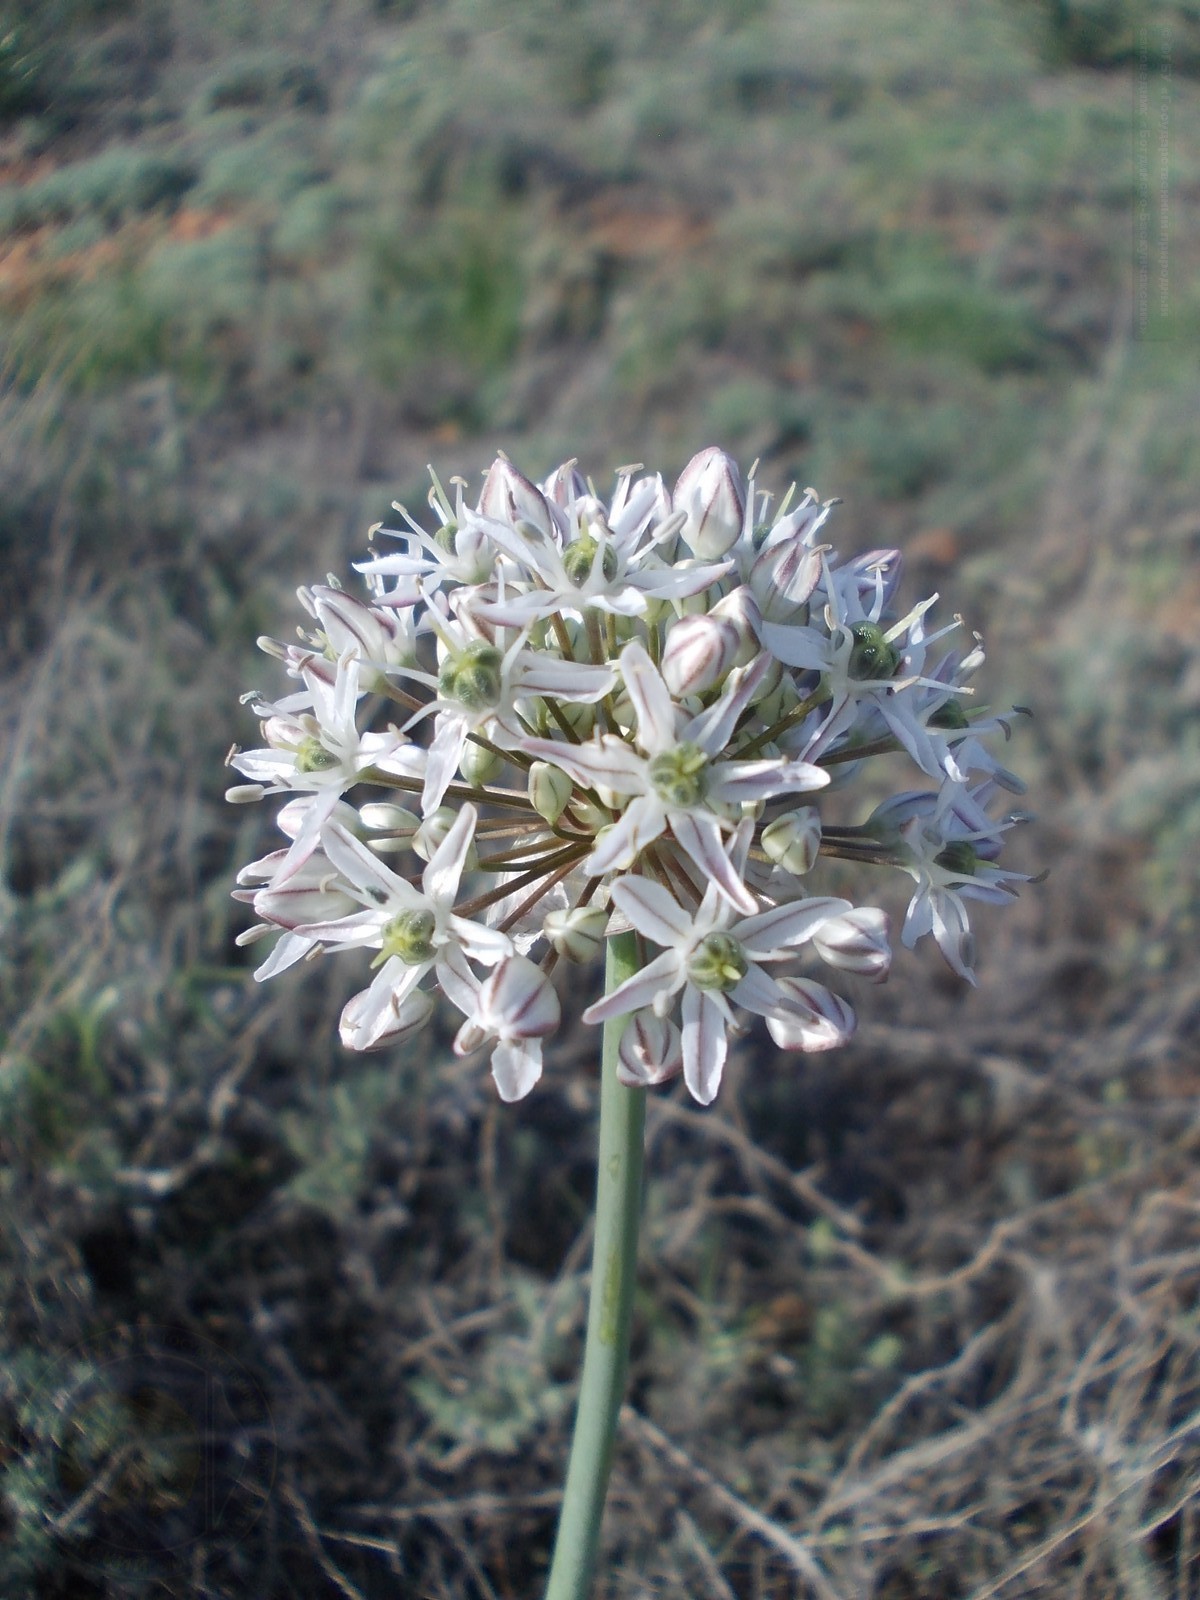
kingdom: Plantae
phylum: Tracheophyta
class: Liliopsida
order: Asparagales
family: Amaryllidaceae
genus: Allium
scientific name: Allium tulipifolium
